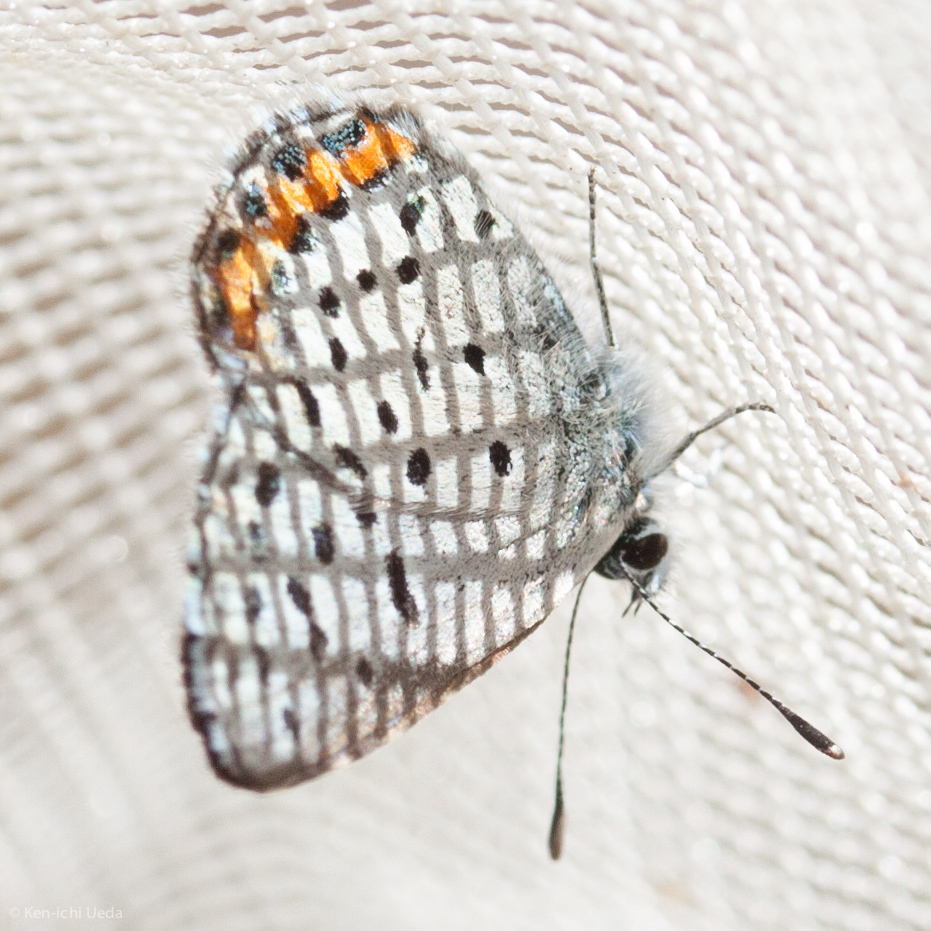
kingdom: Animalia
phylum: Arthropoda
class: Insecta
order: Lepidoptera
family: Lycaenidae
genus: Icaricia
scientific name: Icaricia acmon
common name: Acmon blue
